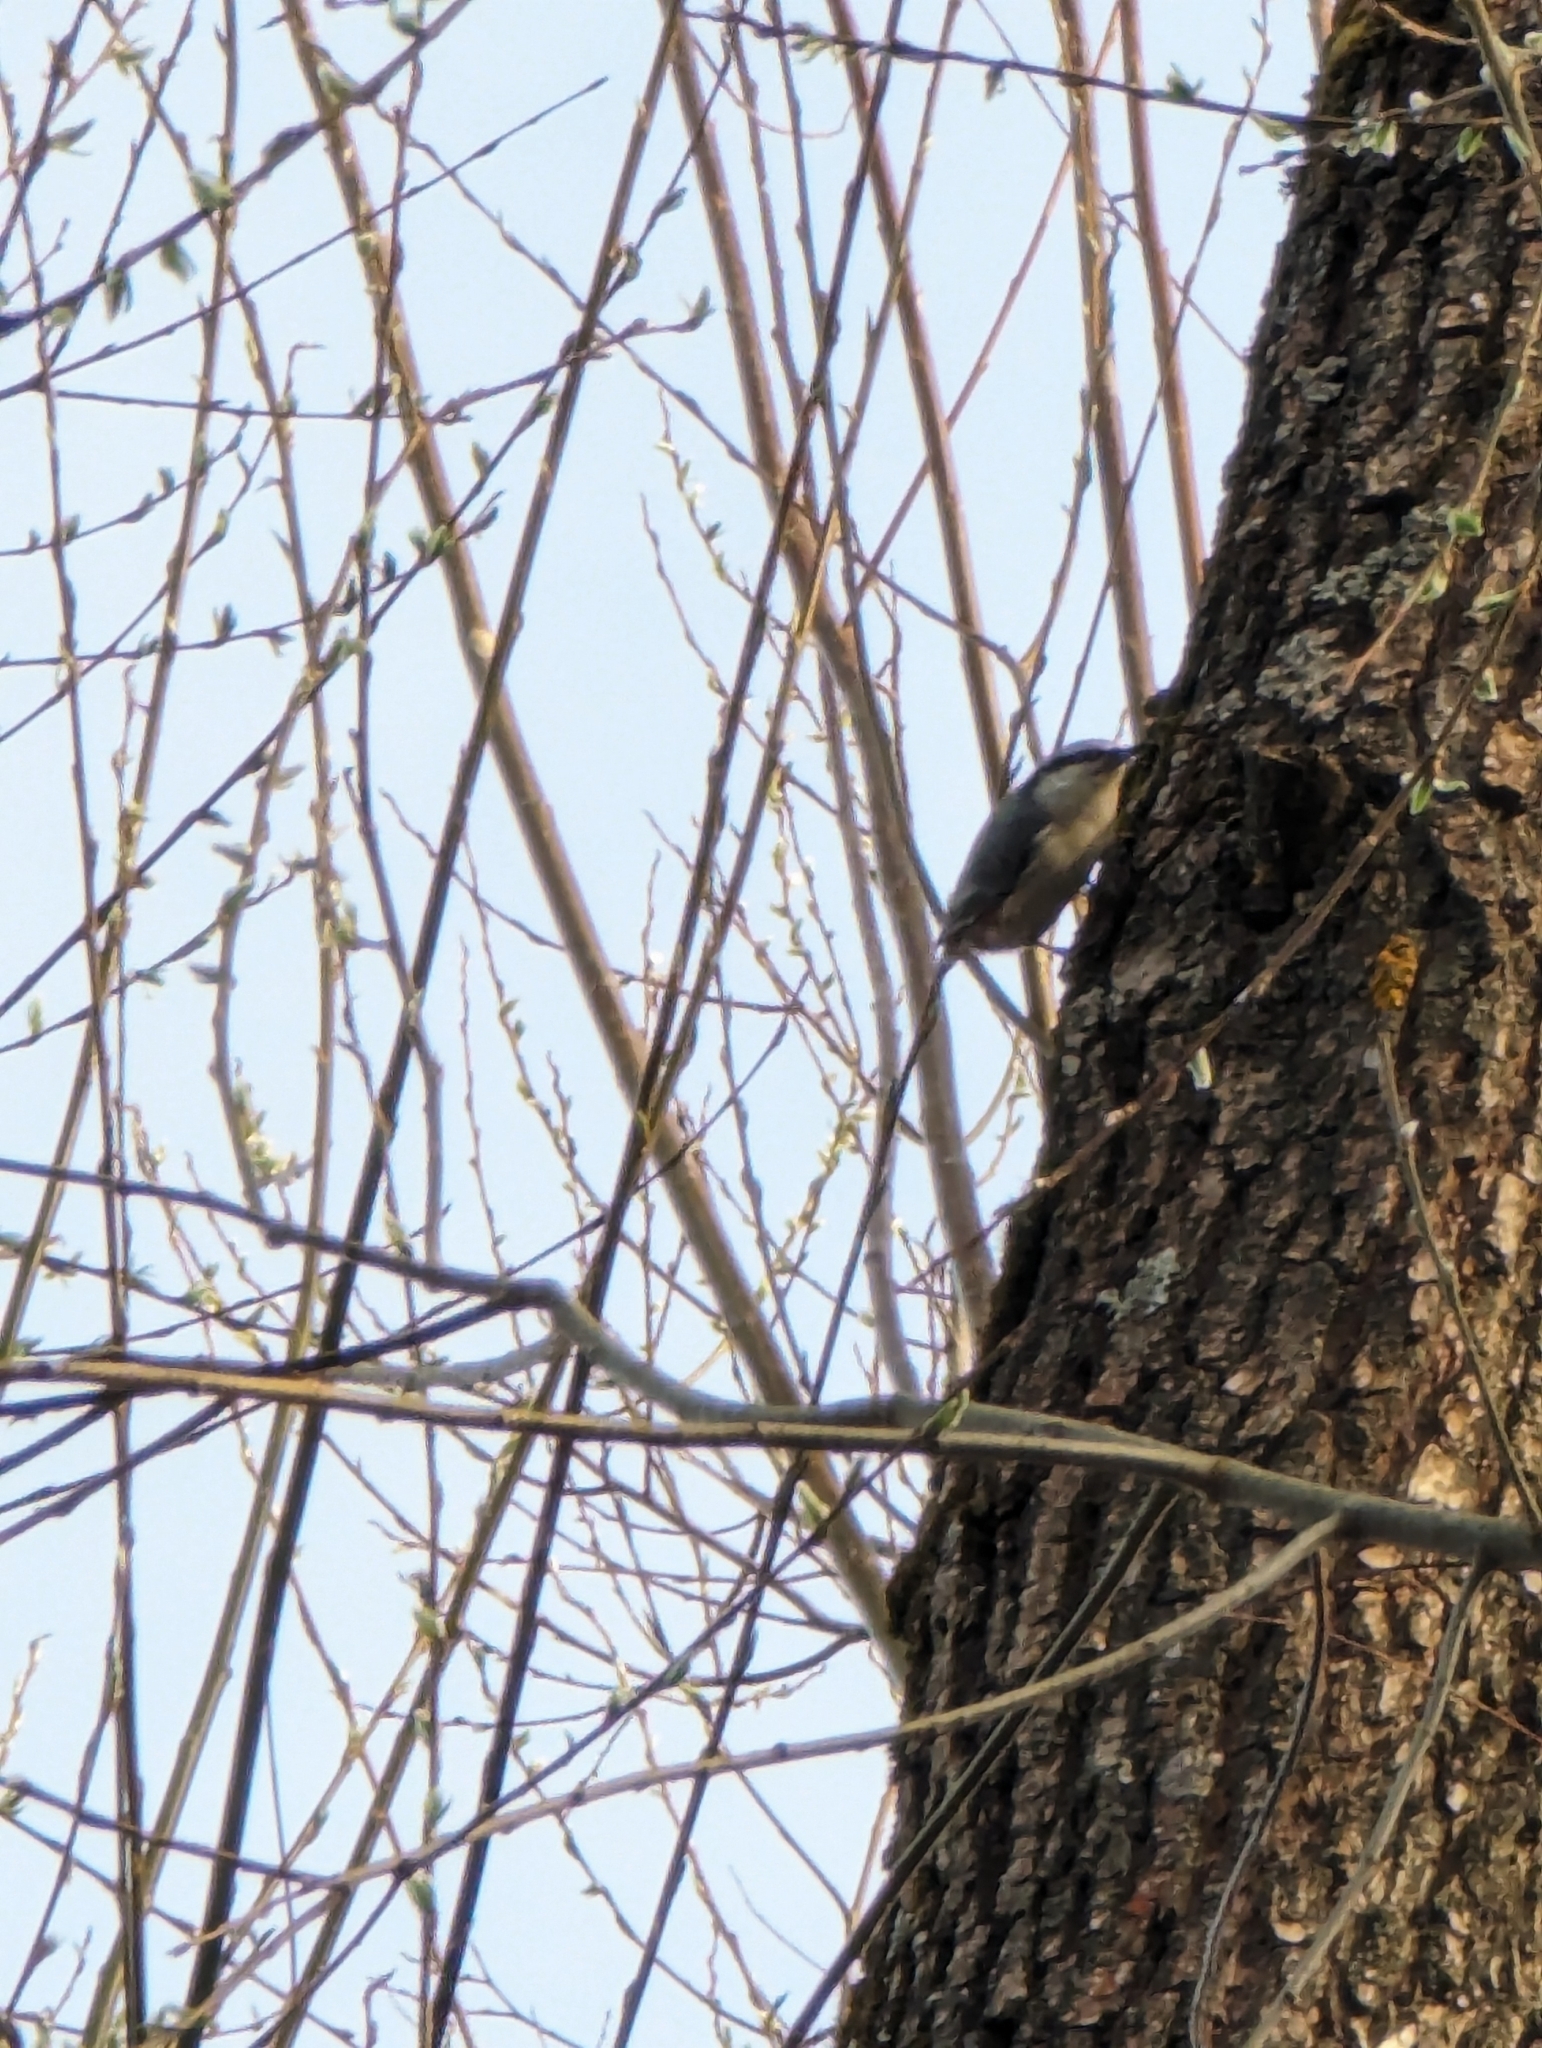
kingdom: Animalia
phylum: Chordata
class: Aves
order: Passeriformes
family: Sittidae
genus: Sitta
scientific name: Sitta europaea
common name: Eurasian nuthatch
